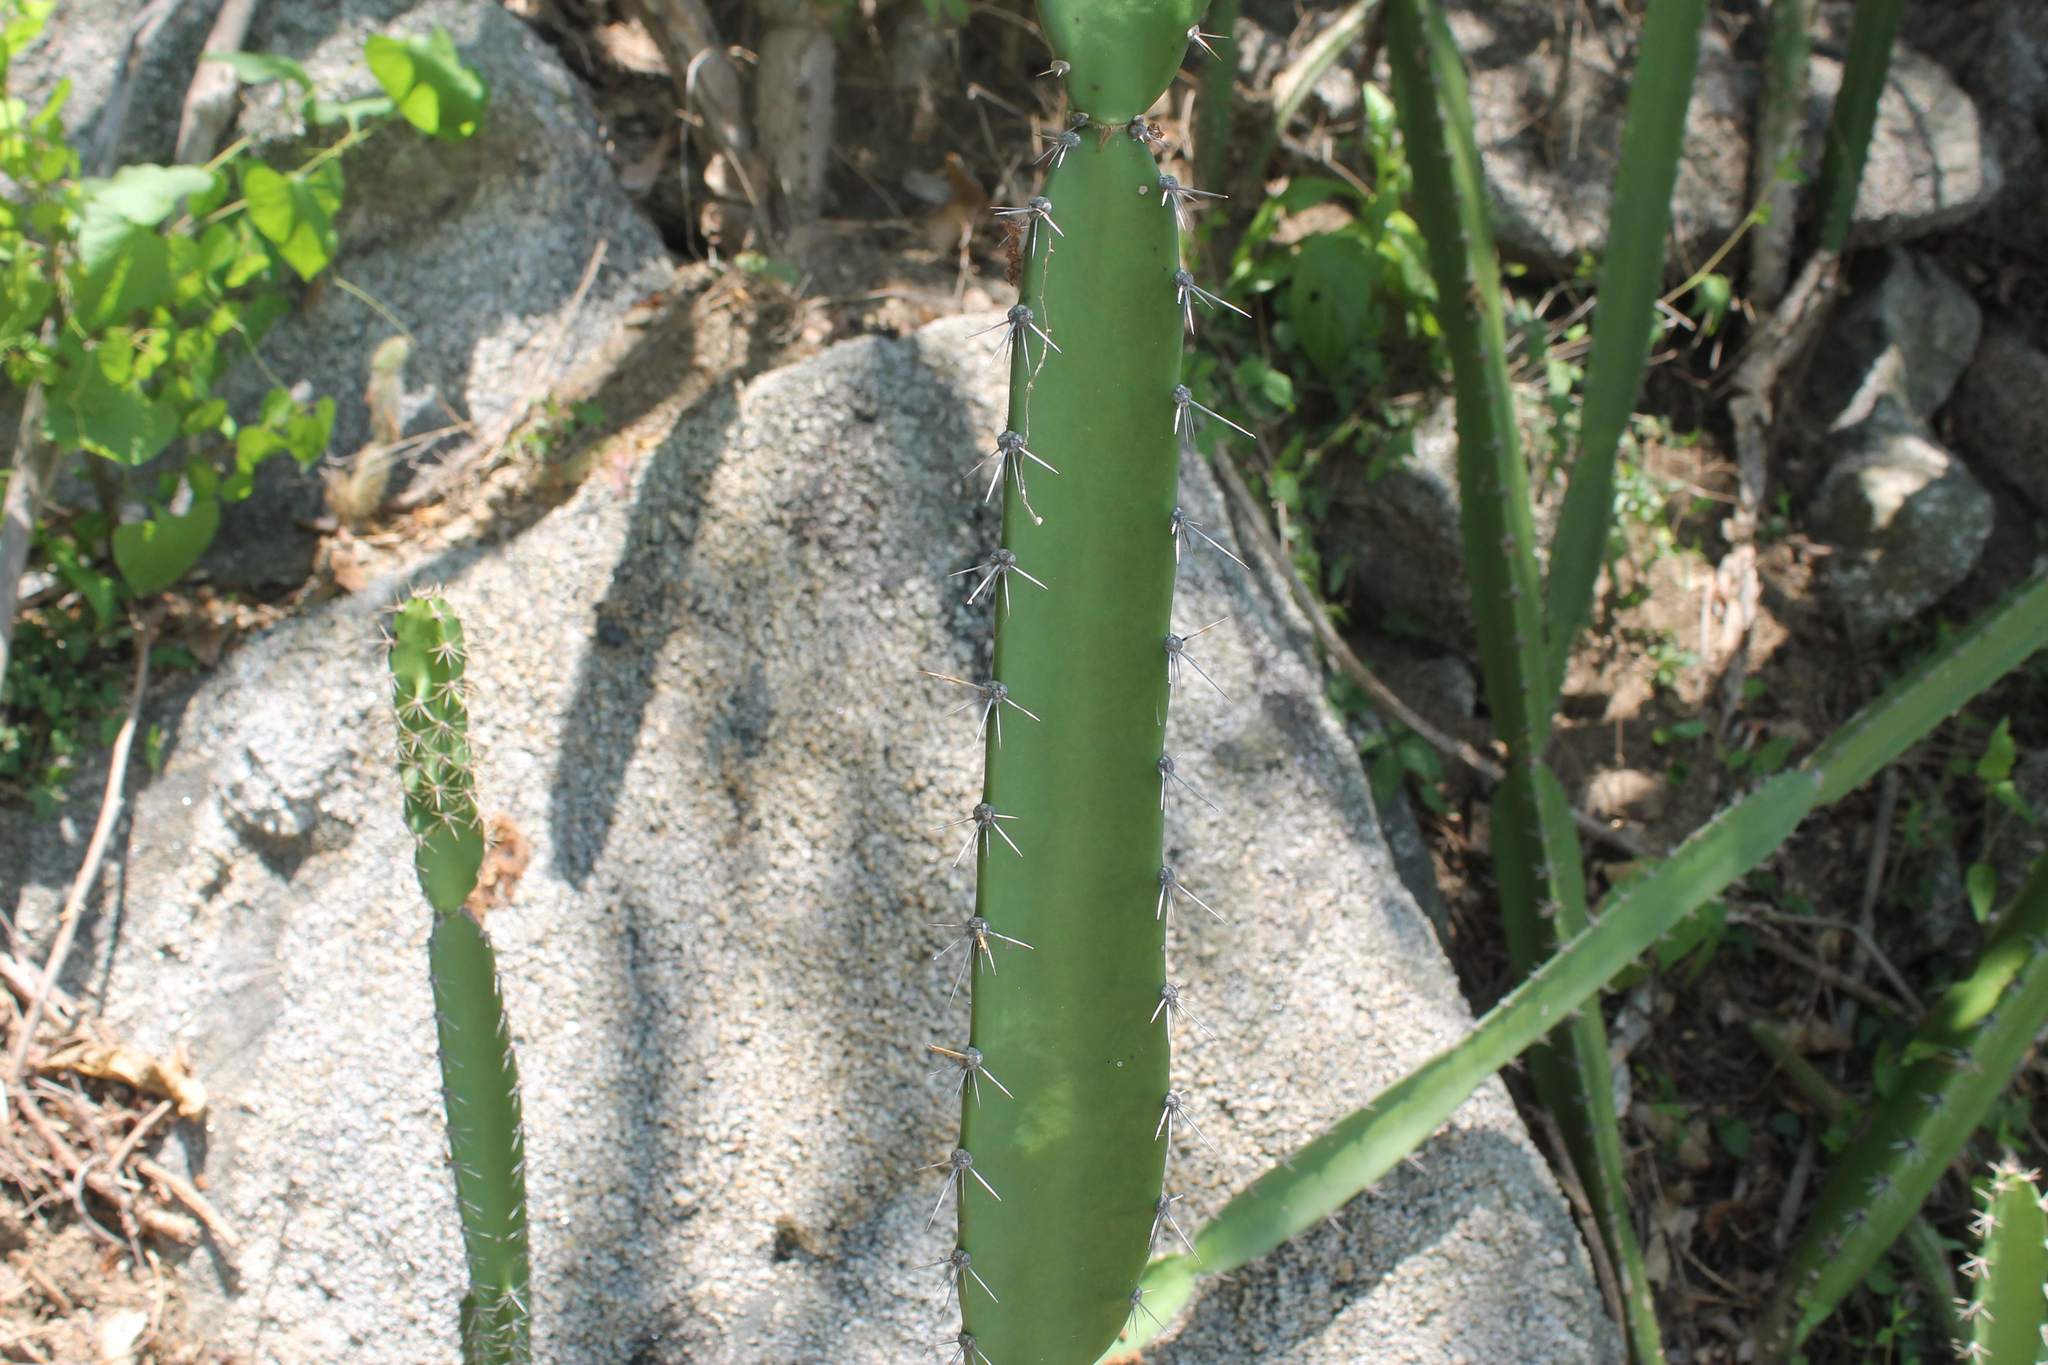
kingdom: Plantae
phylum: Tracheophyta
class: Magnoliopsida
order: Caryophyllales
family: Cactaceae
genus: Acanthocereus
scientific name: Acanthocereus tetragonus
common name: Triangle cactus
